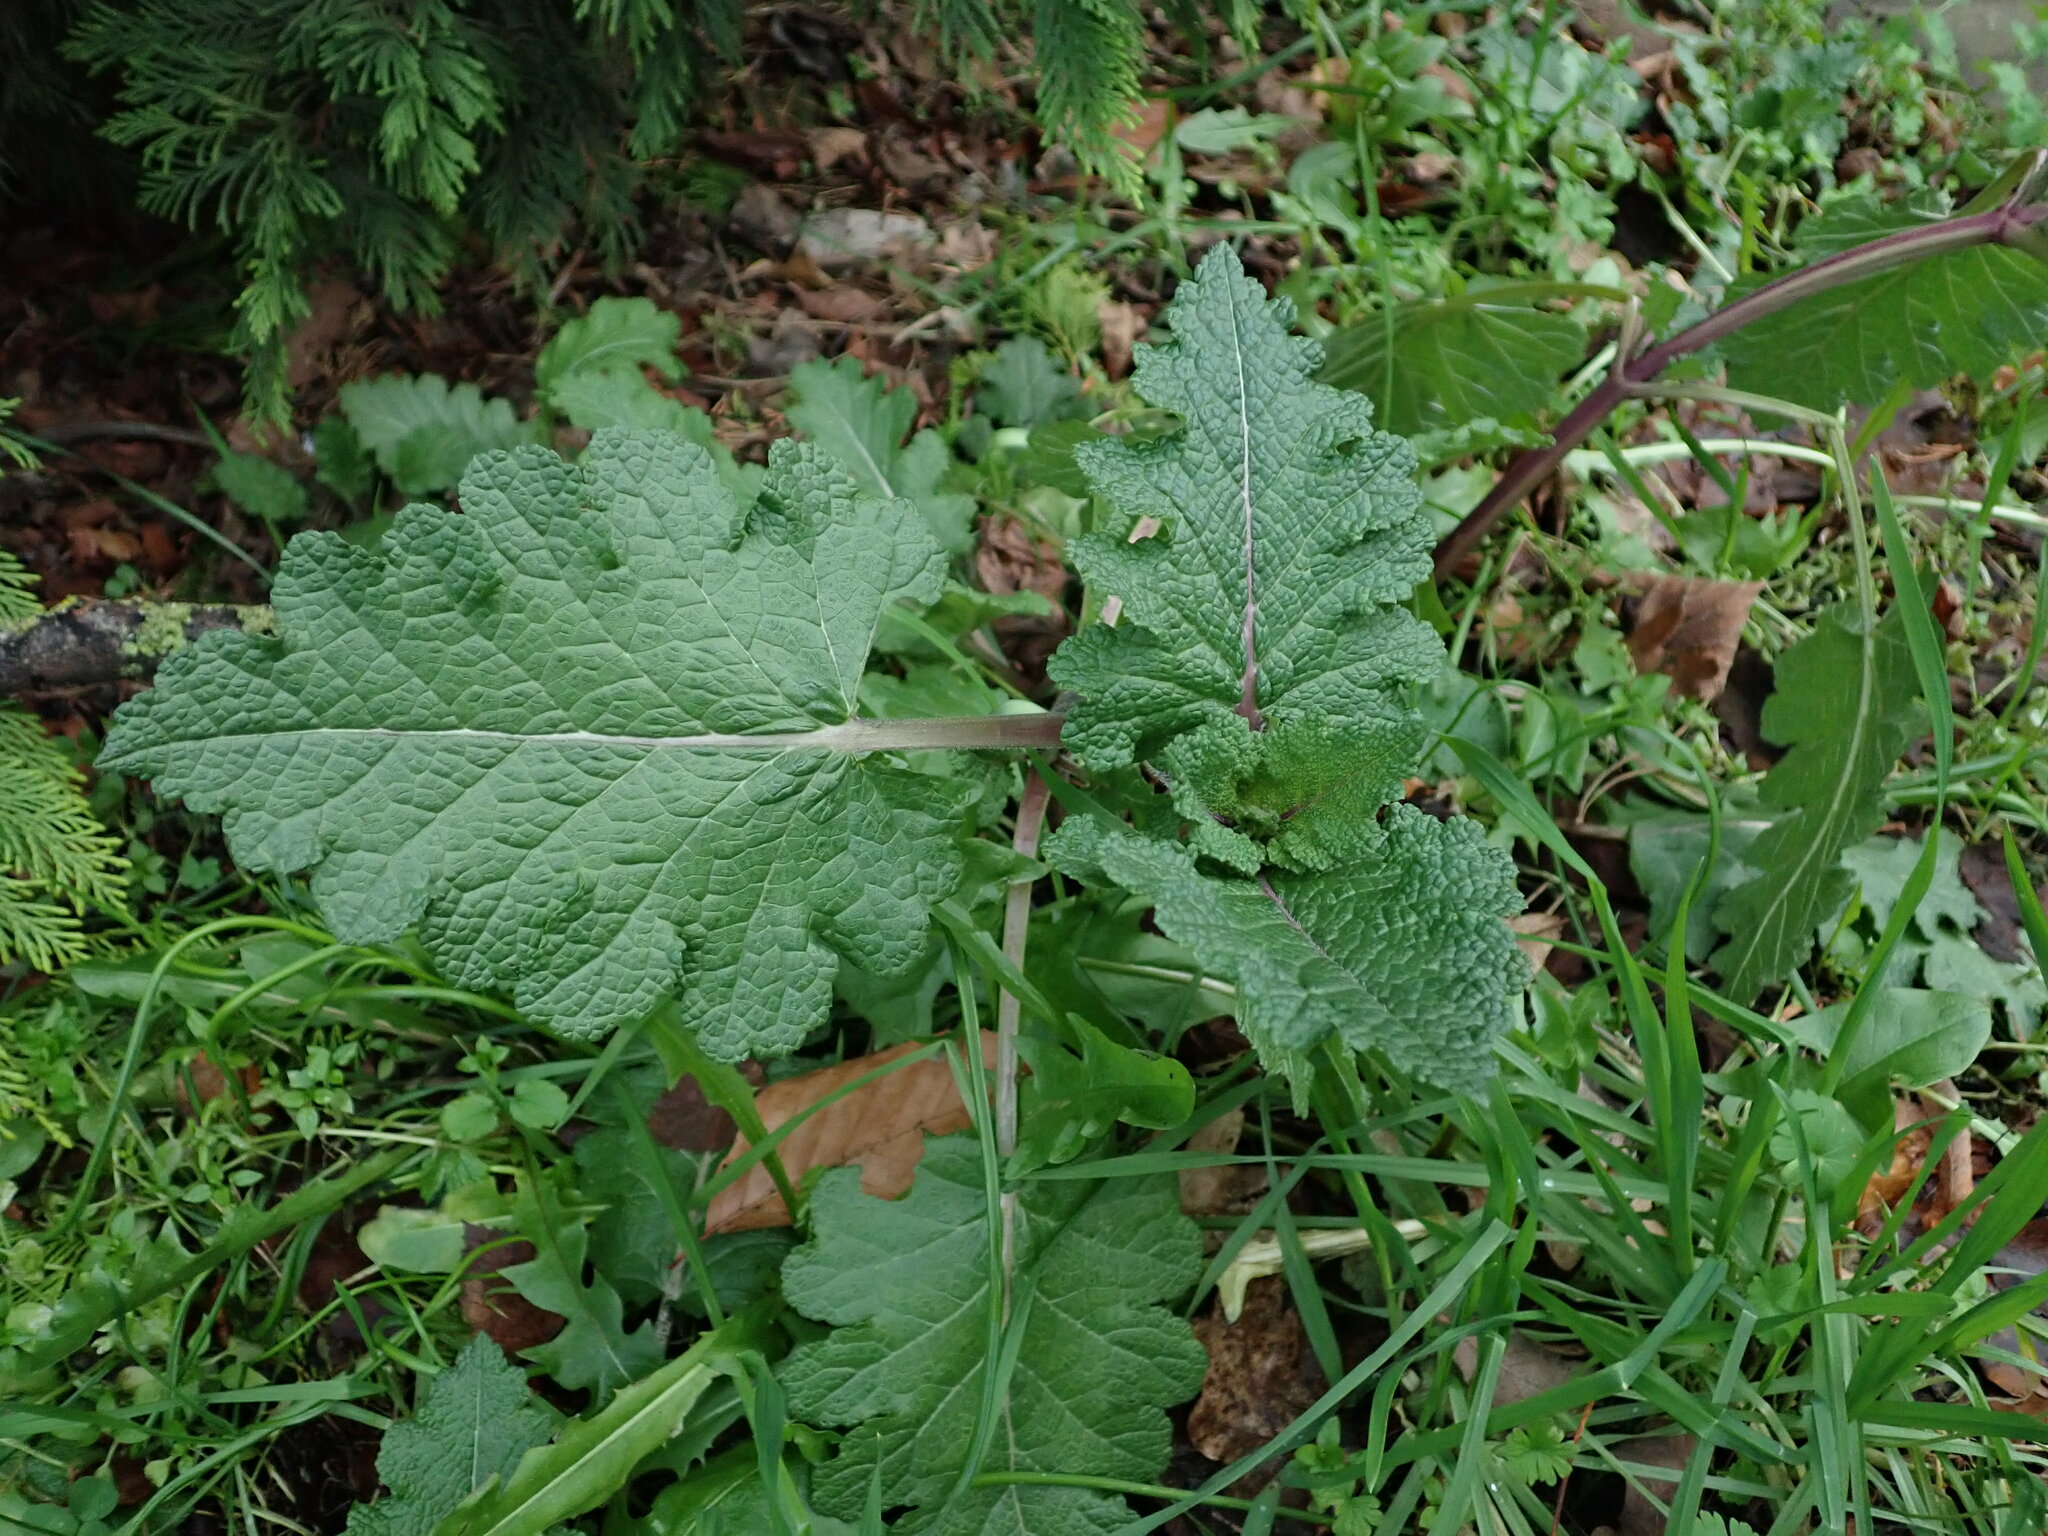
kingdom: Plantae
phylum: Tracheophyta
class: Magnoliopsida
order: Lamiales
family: Lamiaceae
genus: Salvia
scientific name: Salvia verbenaca
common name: Wild clary
